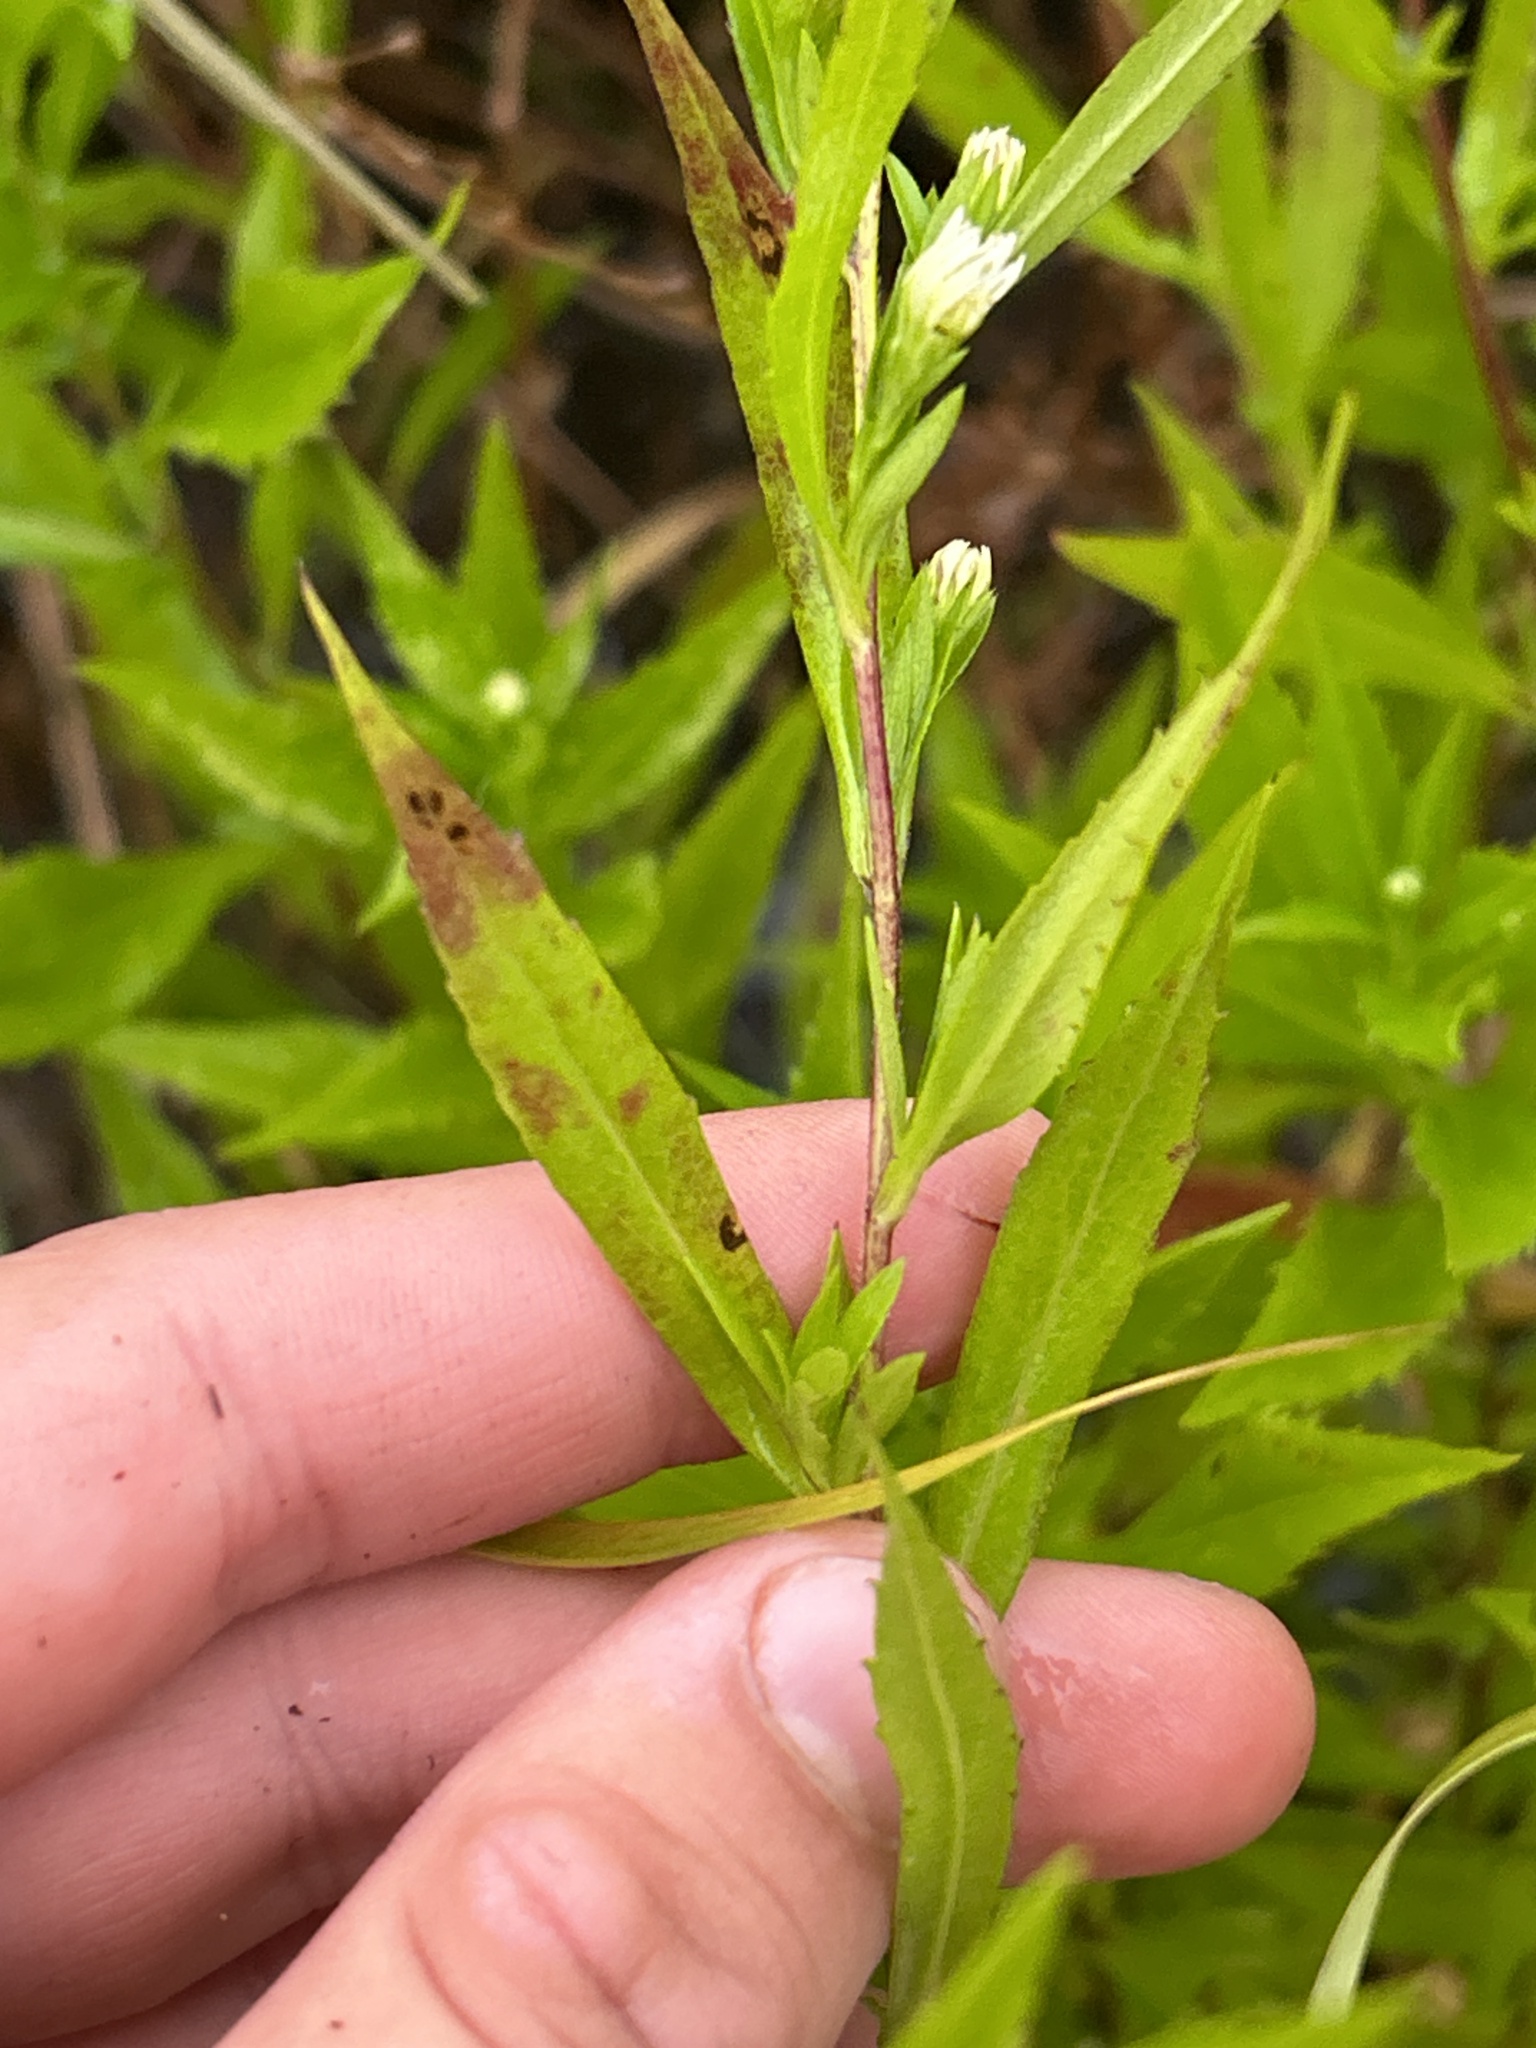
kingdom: Plantae
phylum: Tracheophyta
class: Magnoliopsida
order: Asterales
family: Asteraceae
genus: Symphyotrichum
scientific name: Symphyotrichum lanceolatum
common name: Panicled aster
